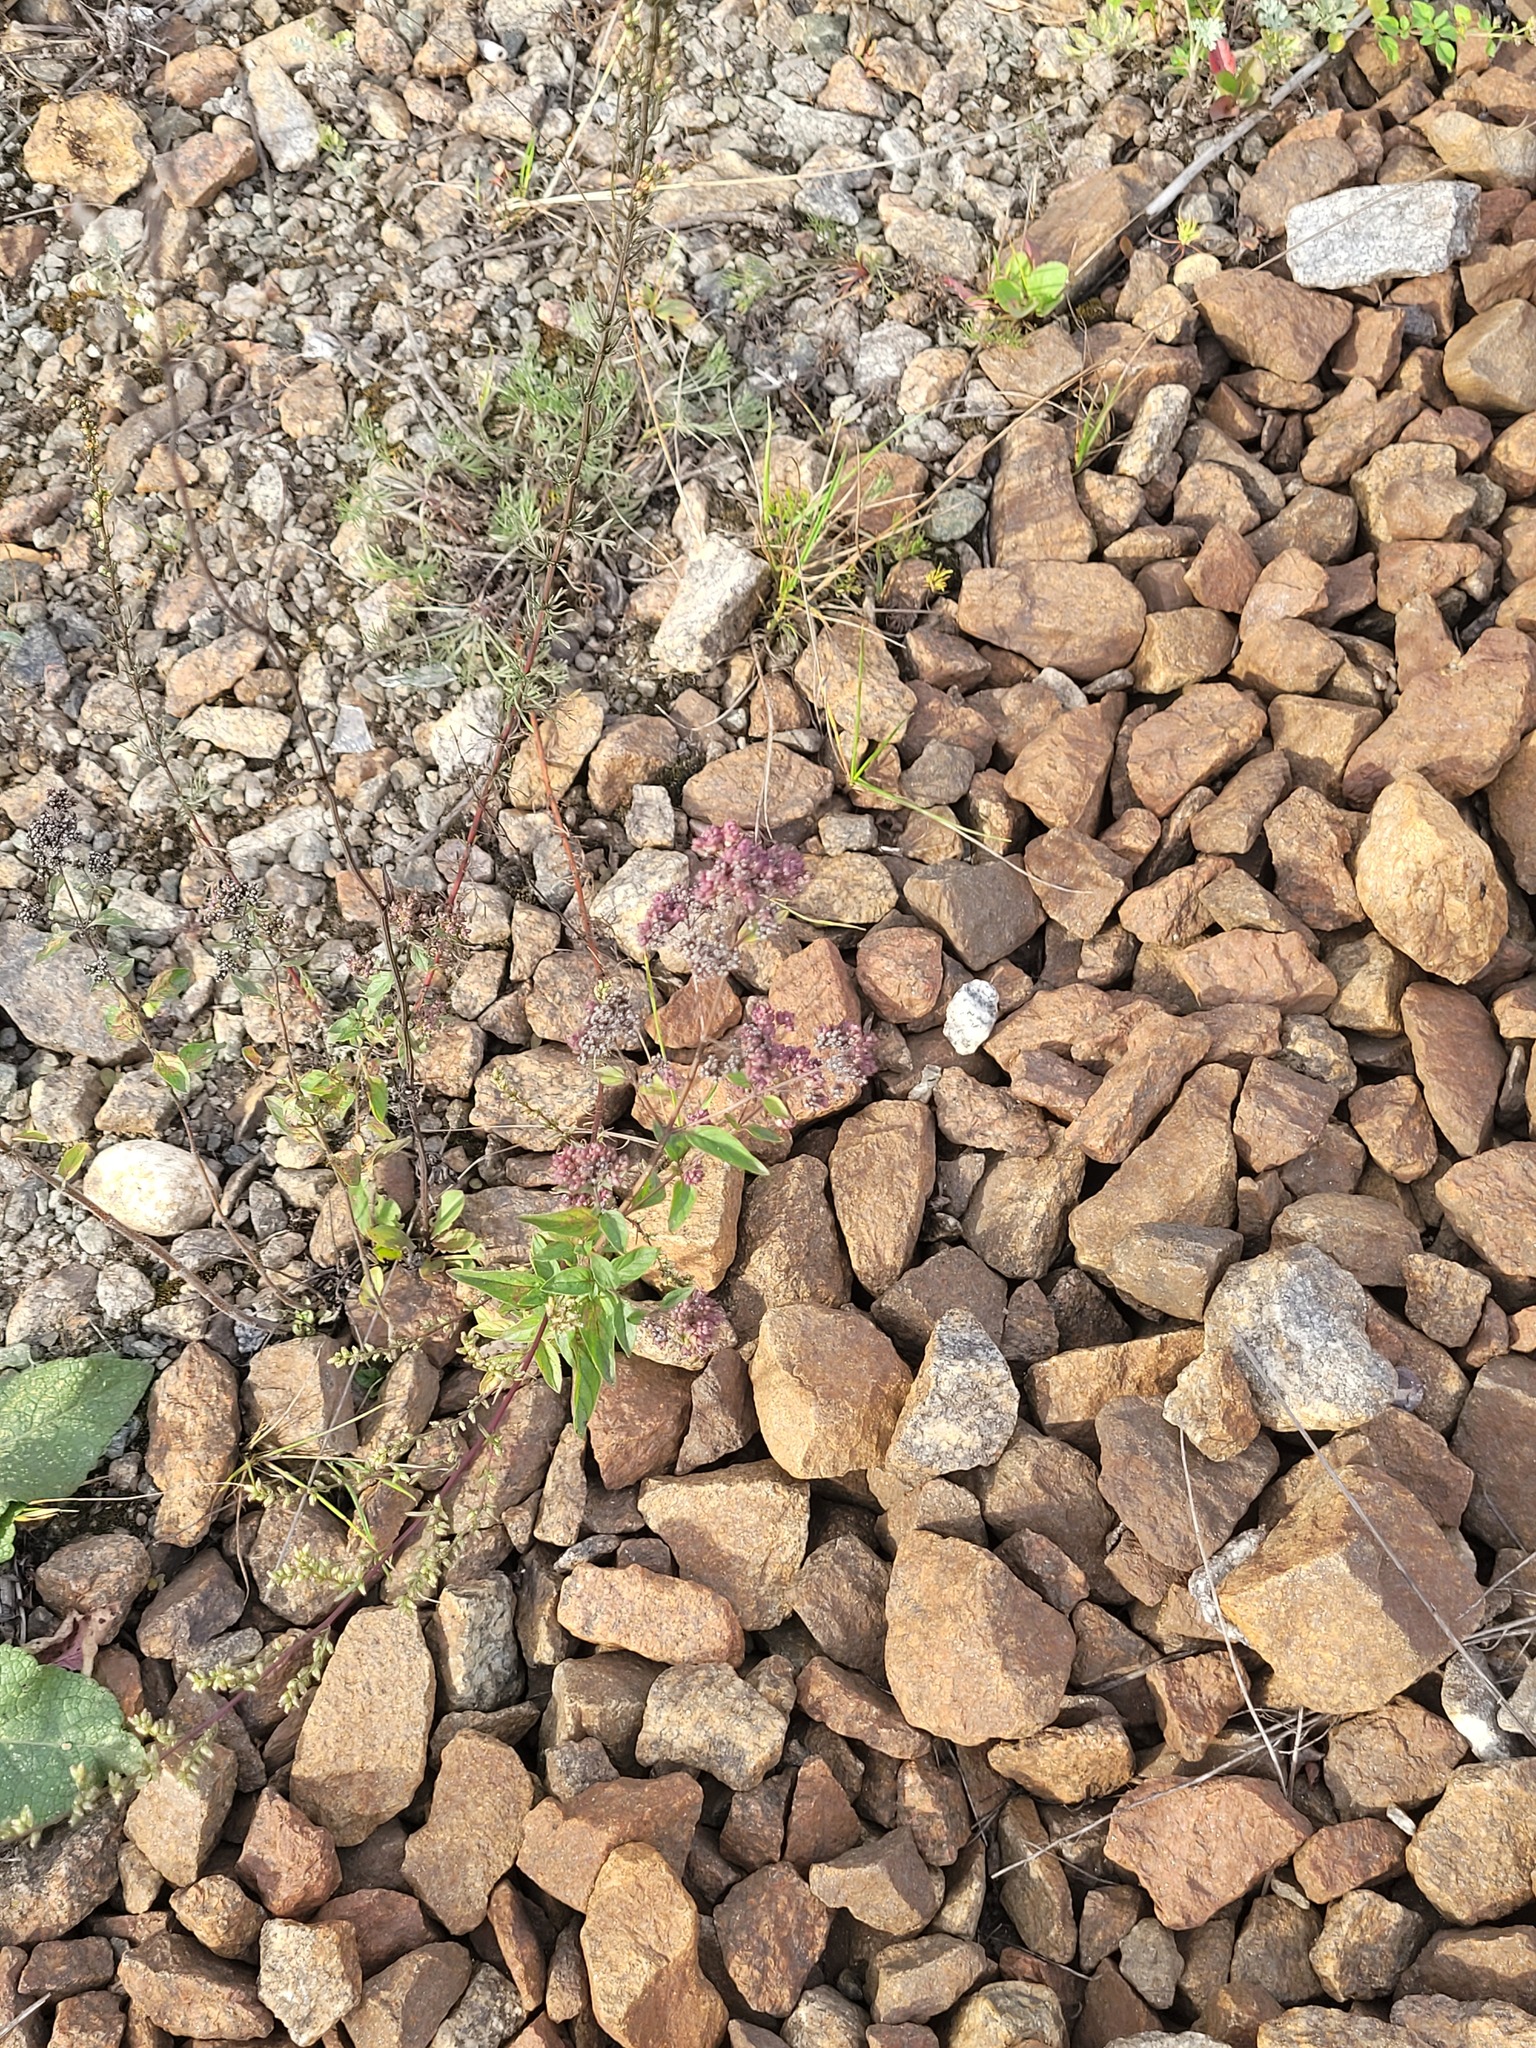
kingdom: Plantae
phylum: Tracheophyta
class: Magnoliopsida
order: Lamiales
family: Lamiaceae
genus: Origanum
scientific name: Origanum vulgare
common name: Wild marjoram
